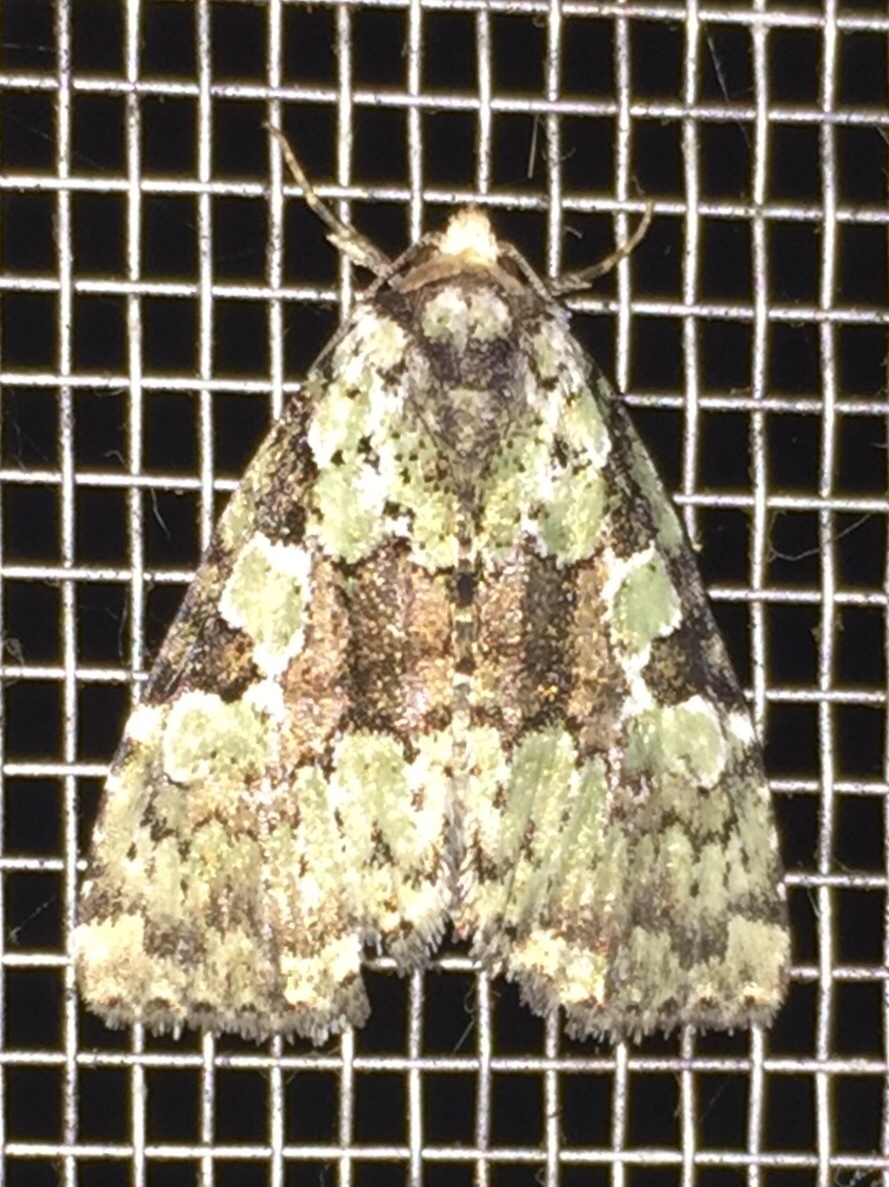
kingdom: Animalia
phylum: Arthropoda
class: Insecta
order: Lepidoptera
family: Noctuidae
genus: Leuconycta
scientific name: Leuconycta lepidula
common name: Marbled-green leuconycta moth
